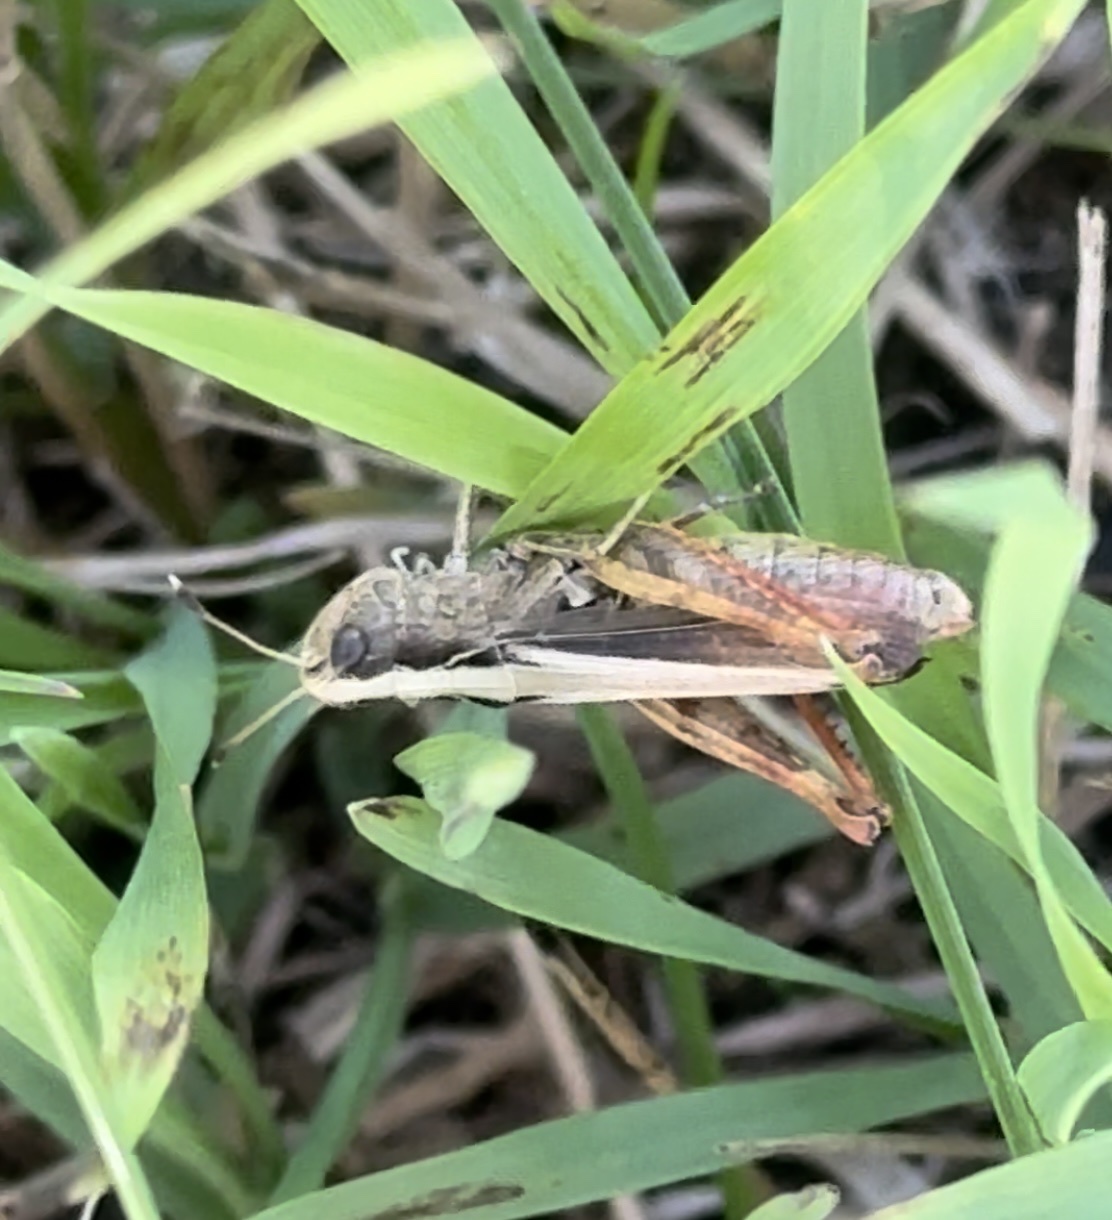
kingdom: Animalia
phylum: Arthropoda
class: Insecta
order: Orthoptera
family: Acrididae
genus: Gomphocerippus
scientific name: Gomphocerippus rufus
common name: Rufous grasshopper
